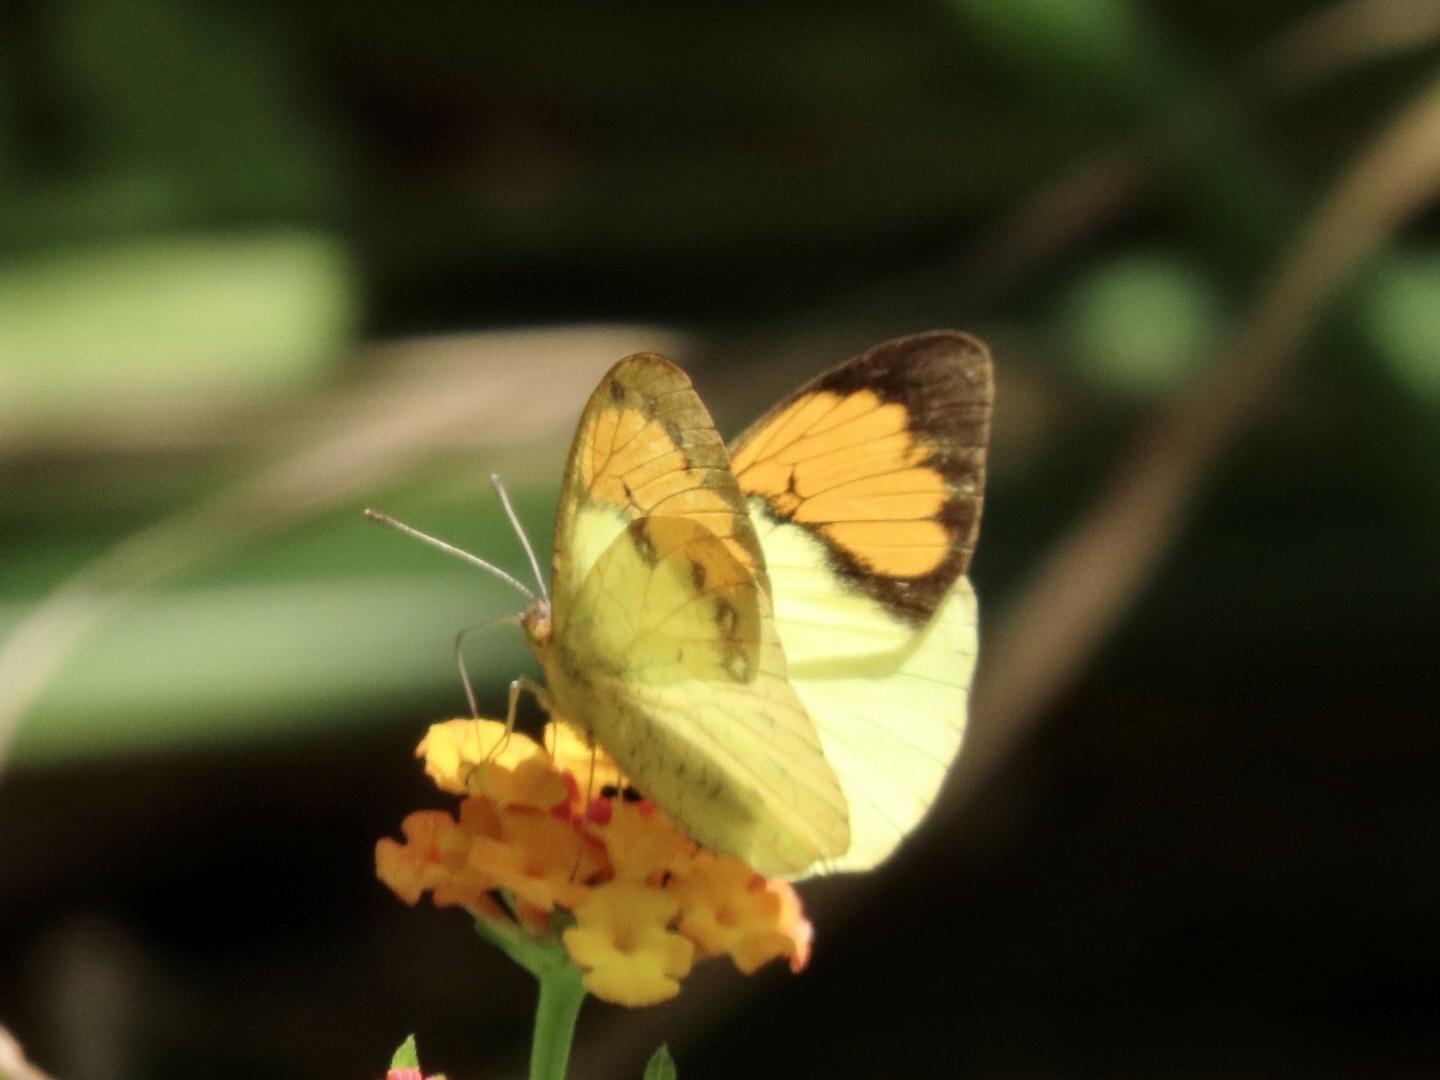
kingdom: Animalia
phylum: Arthropoda
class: Insecta
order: Lepidoptera
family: Pieridae
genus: Ixias
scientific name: Ixias pyrene
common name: Yellow orange tip
